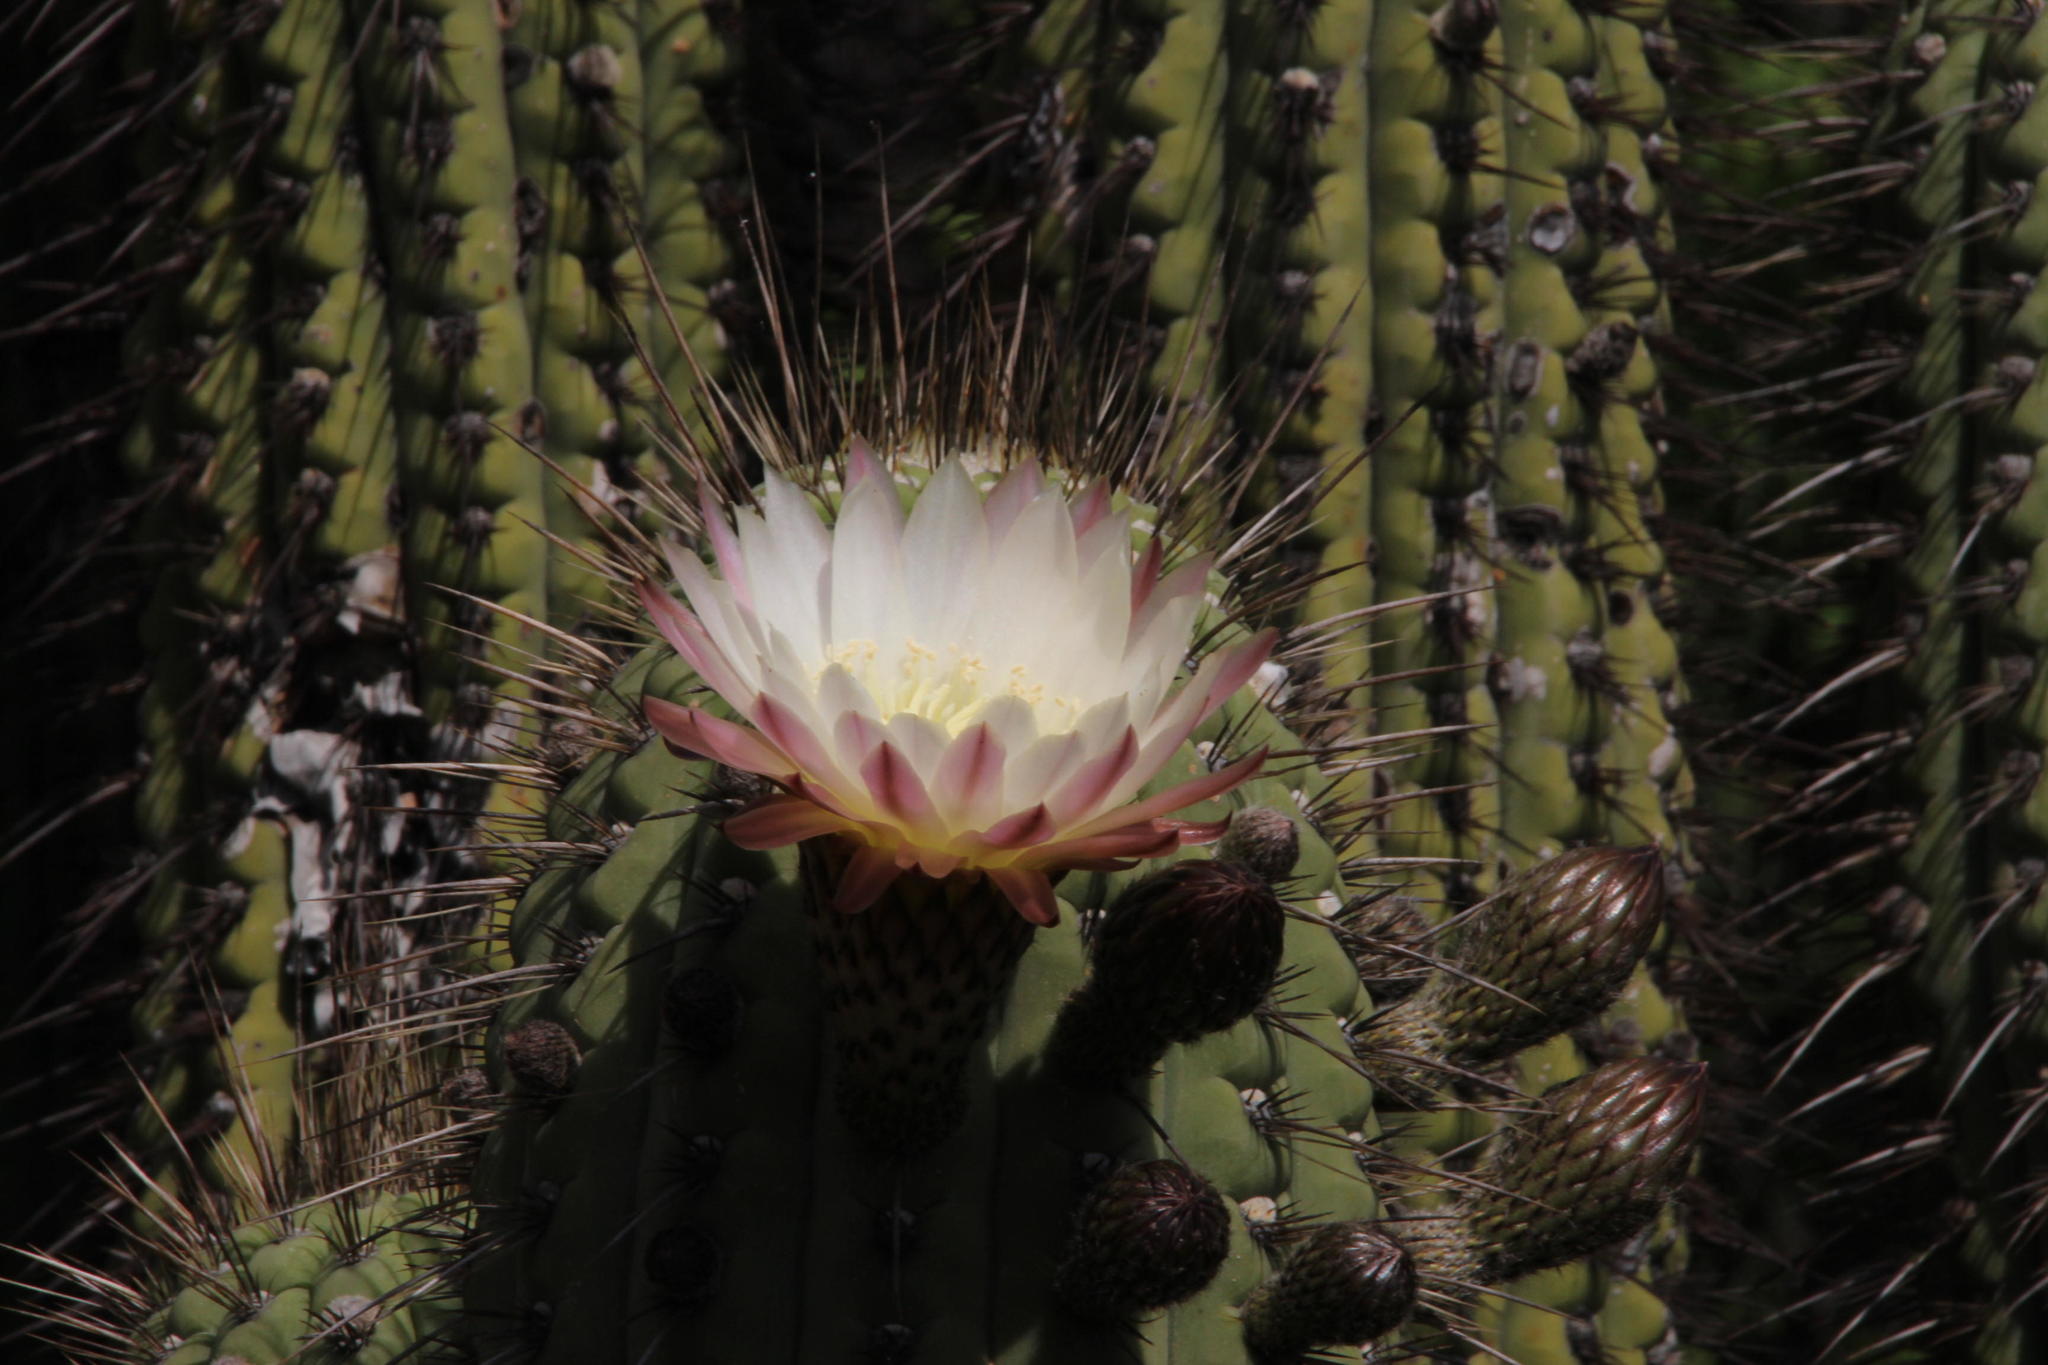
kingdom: Plantae
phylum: Tracheophyta
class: Magnoliopsida
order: Caryophyllales
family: Cactaceae
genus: Leucostele
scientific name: Leucostele chiloensis
